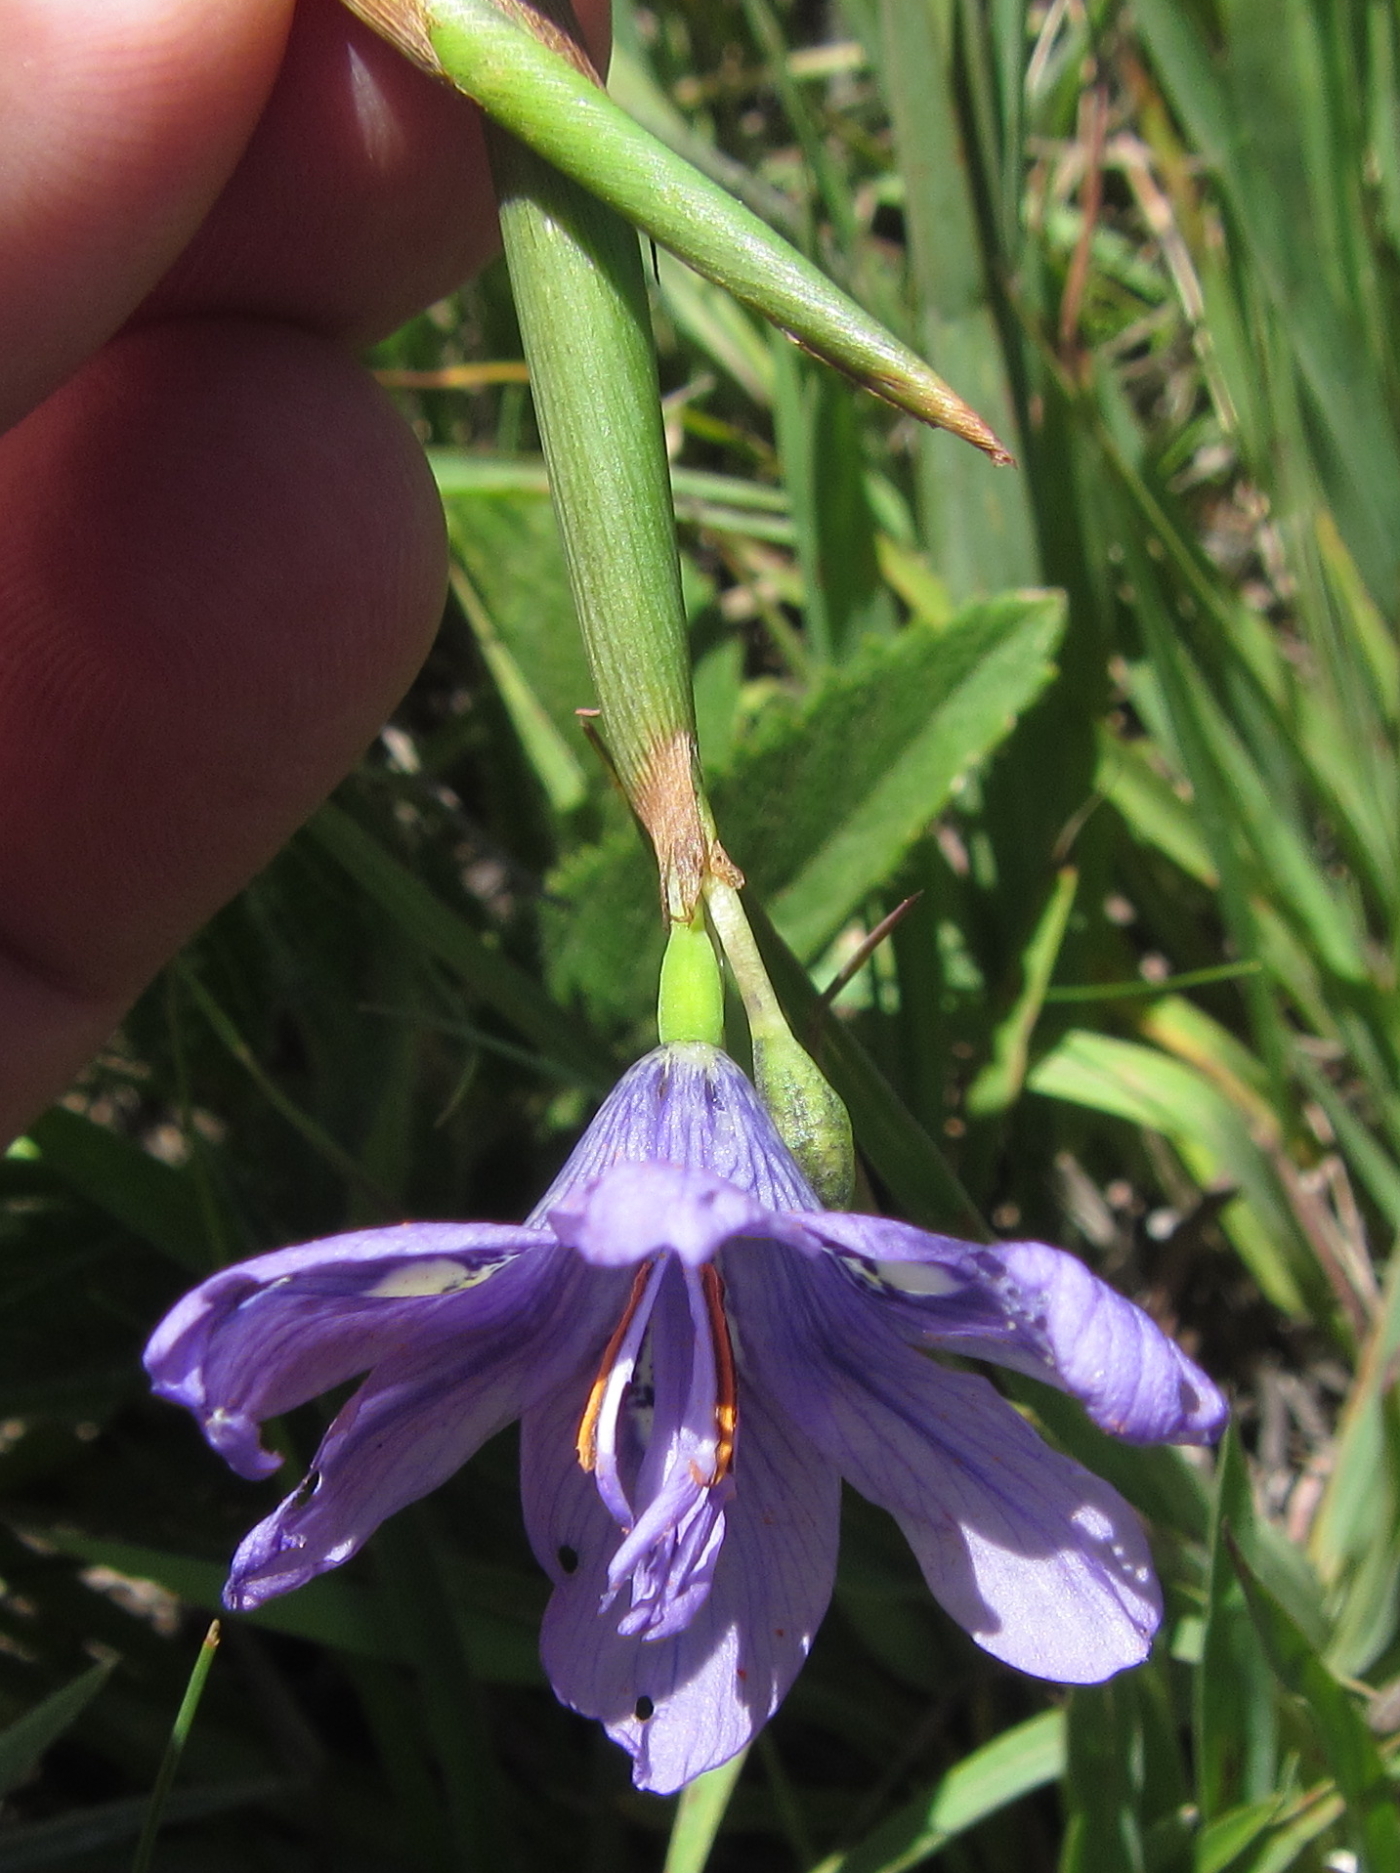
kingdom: Plantae
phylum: Tracheophyta
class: Liliopsida
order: Asparagales
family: Iridaceae
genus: Moraea
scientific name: Moraea inclinata
